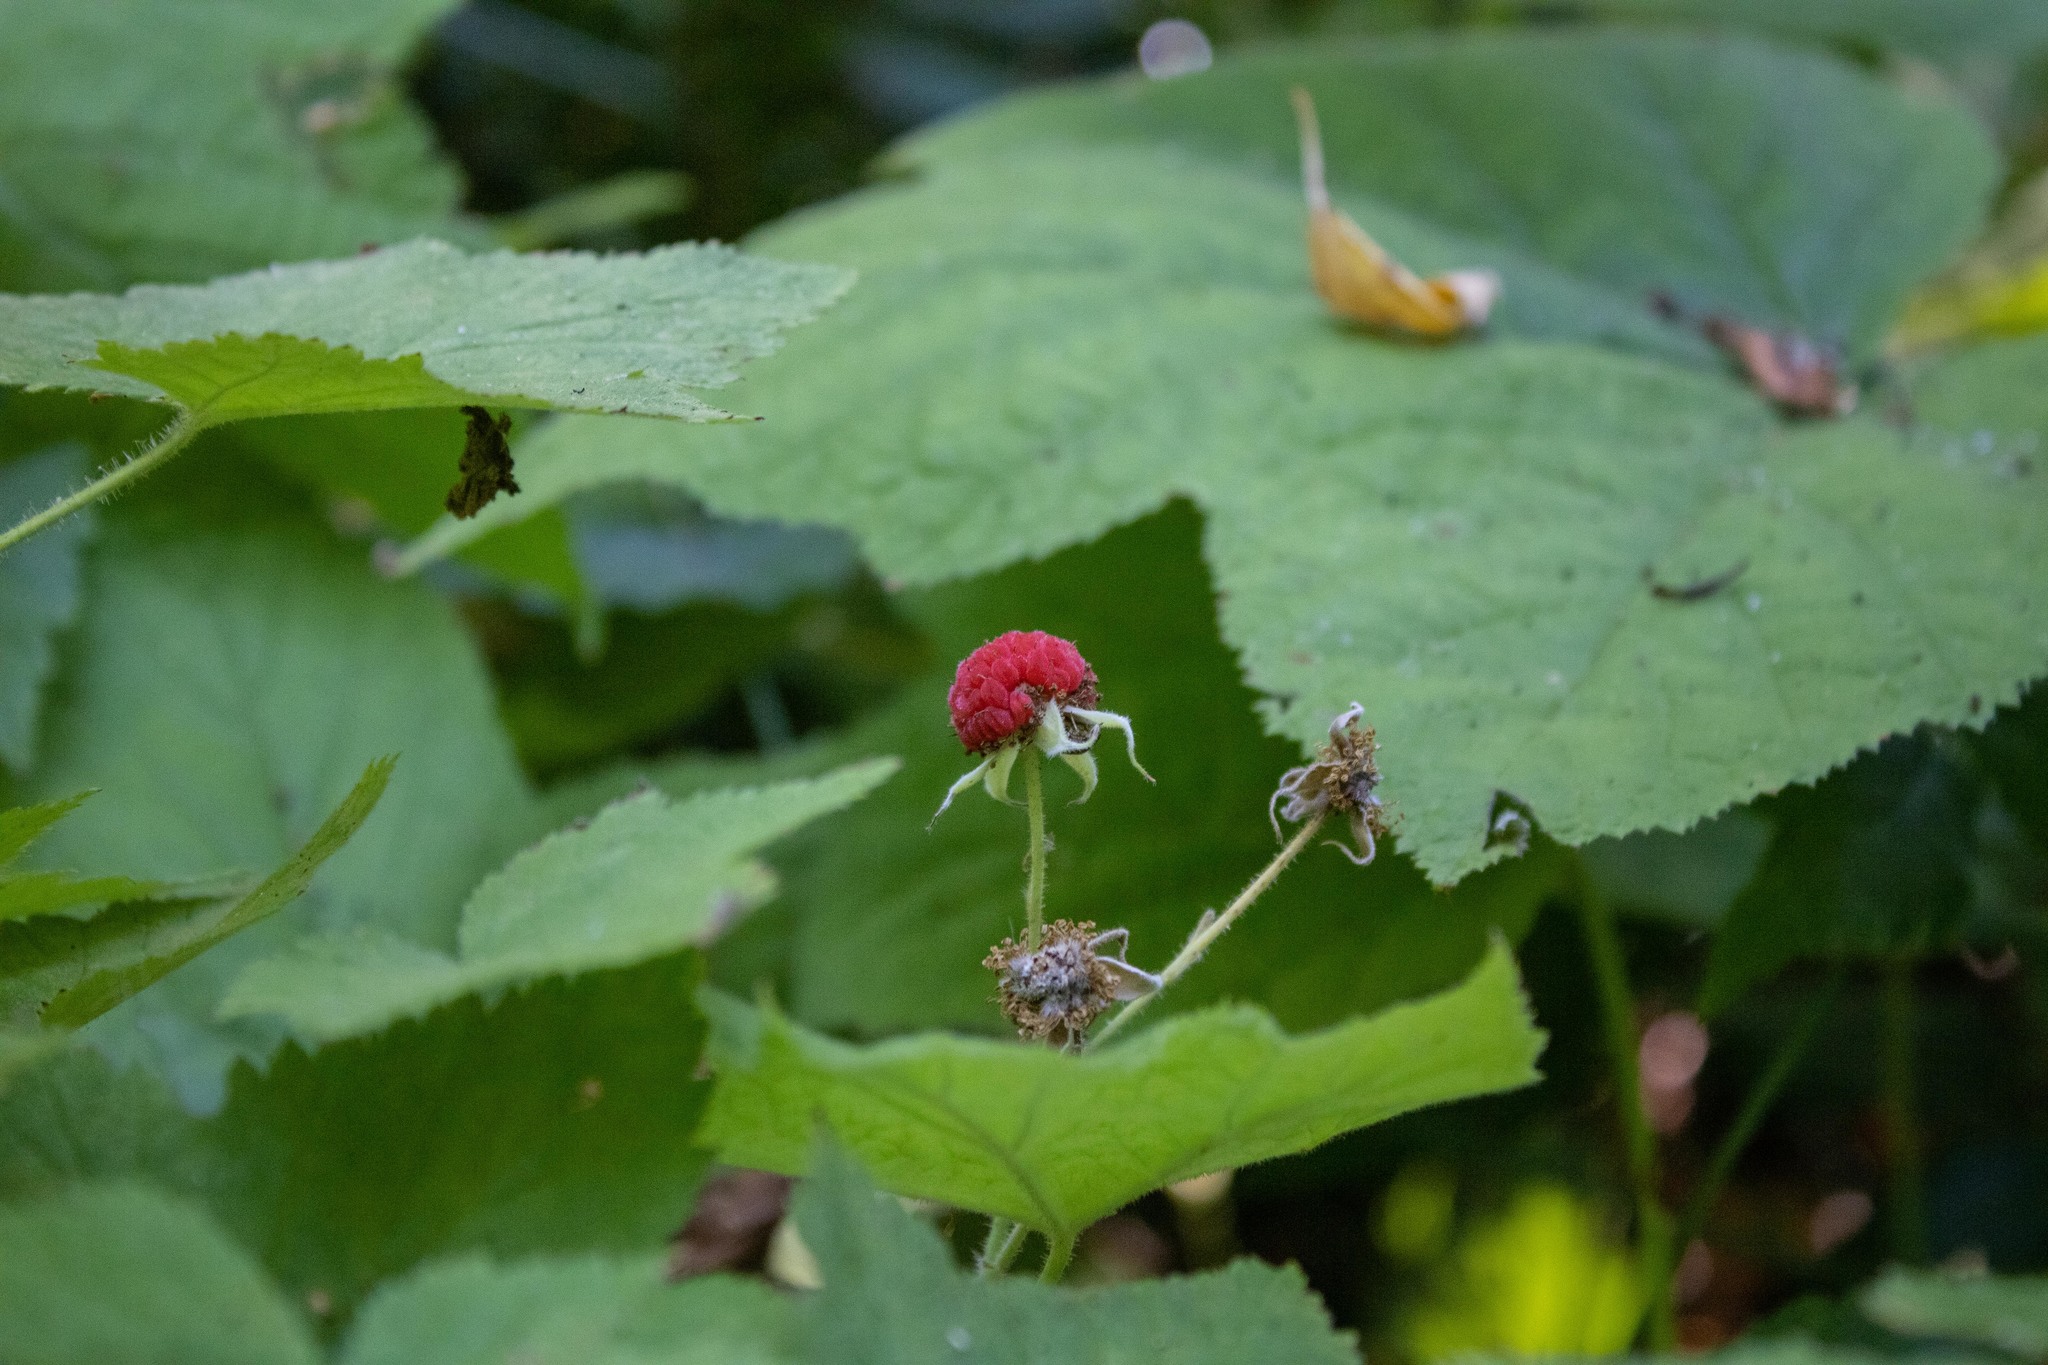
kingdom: Plantae
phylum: Tracheophyta
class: Magnoliopsida
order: Rosales
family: Rosaceae
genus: Rubus
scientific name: Rubus parviflorus
